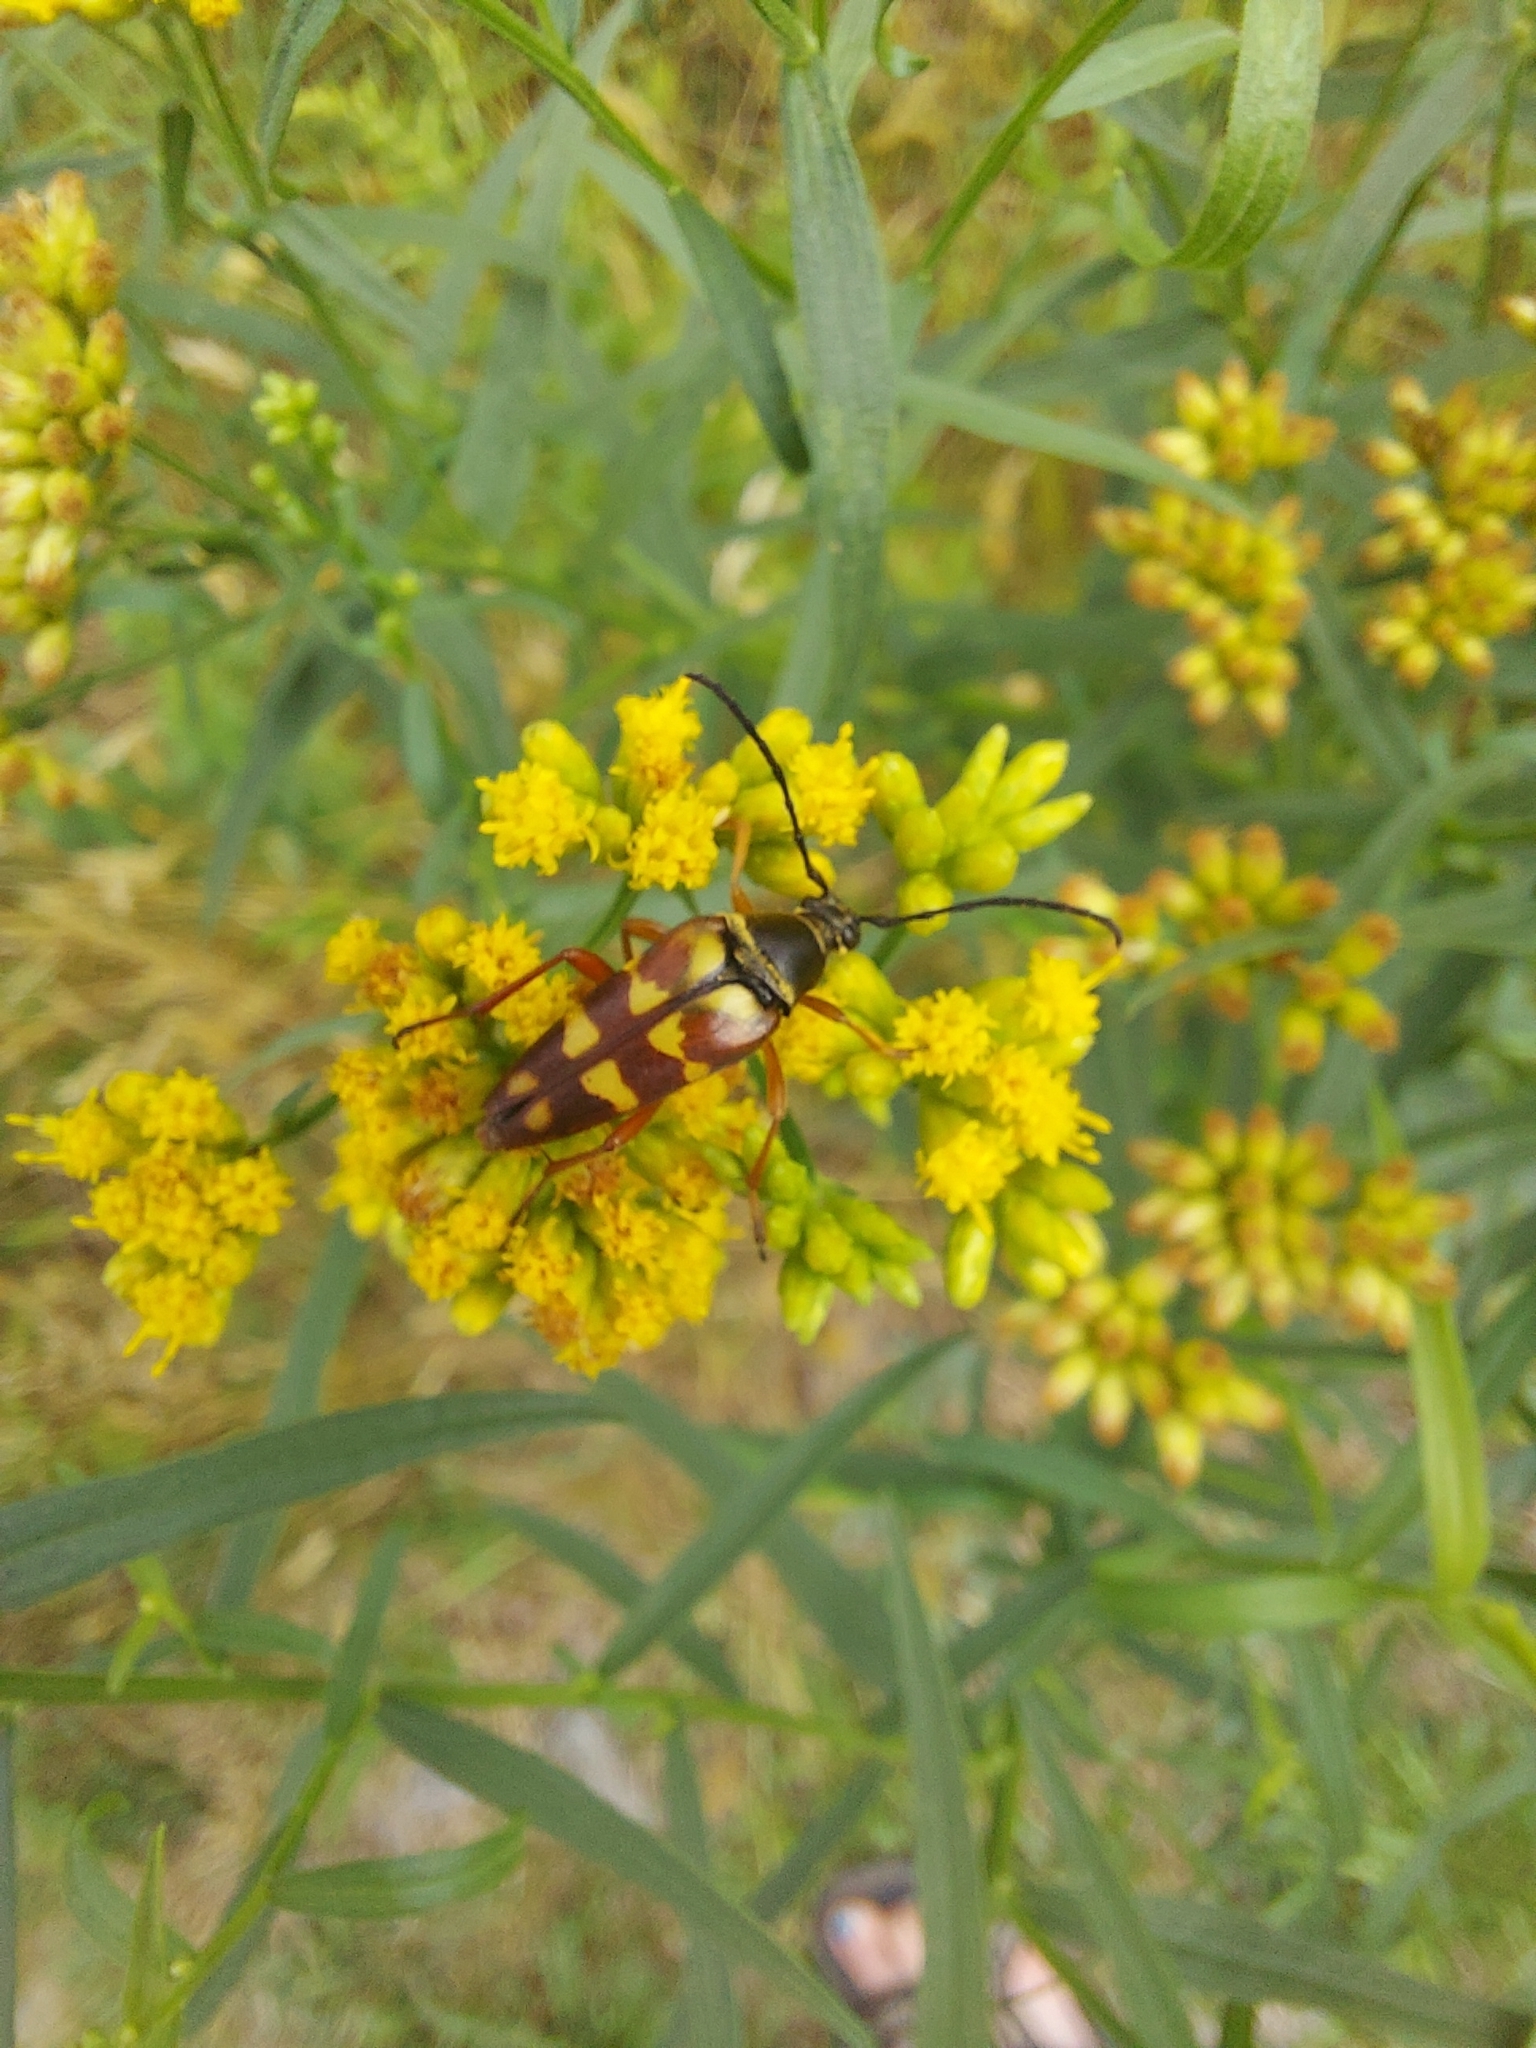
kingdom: Animalia
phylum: Arthropoda
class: Insecta
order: Coleoptera
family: Cerambycidae
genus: Typocerus
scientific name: Typocerus velutinus
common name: Banded longhorn beetle
